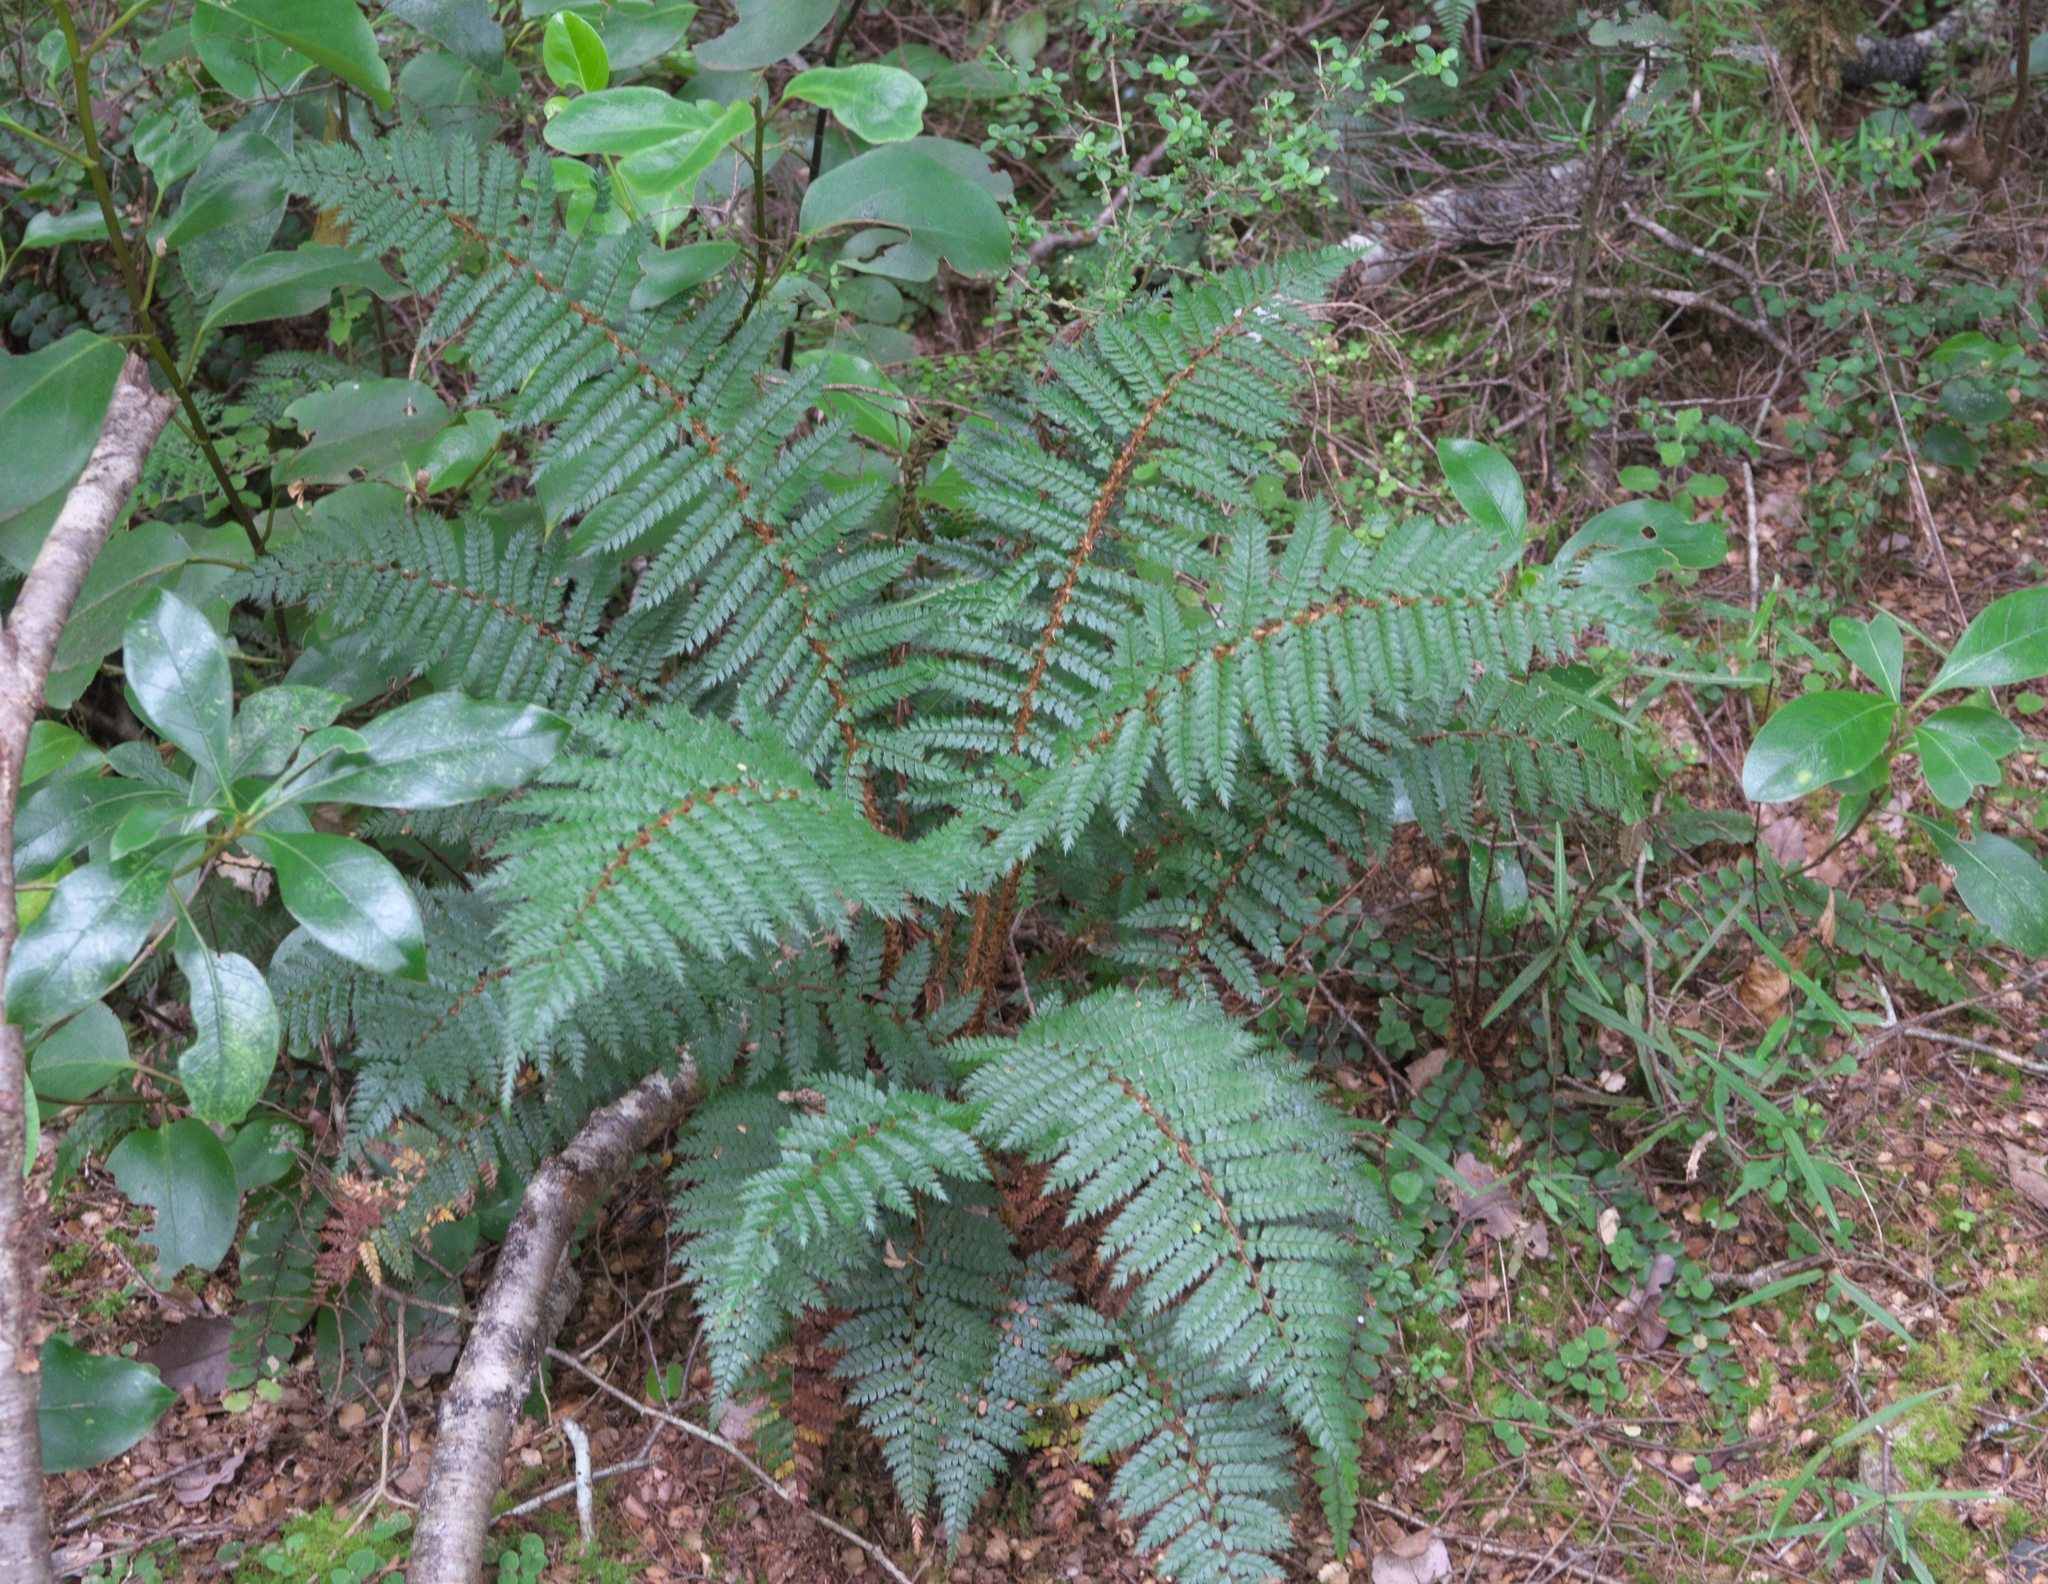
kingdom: Plantae
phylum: Tracheophyta
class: Polypodiopsida
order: Polypodiales
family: Dryopteridaceae
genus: Polystichum
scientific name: Polystichum vestitum
